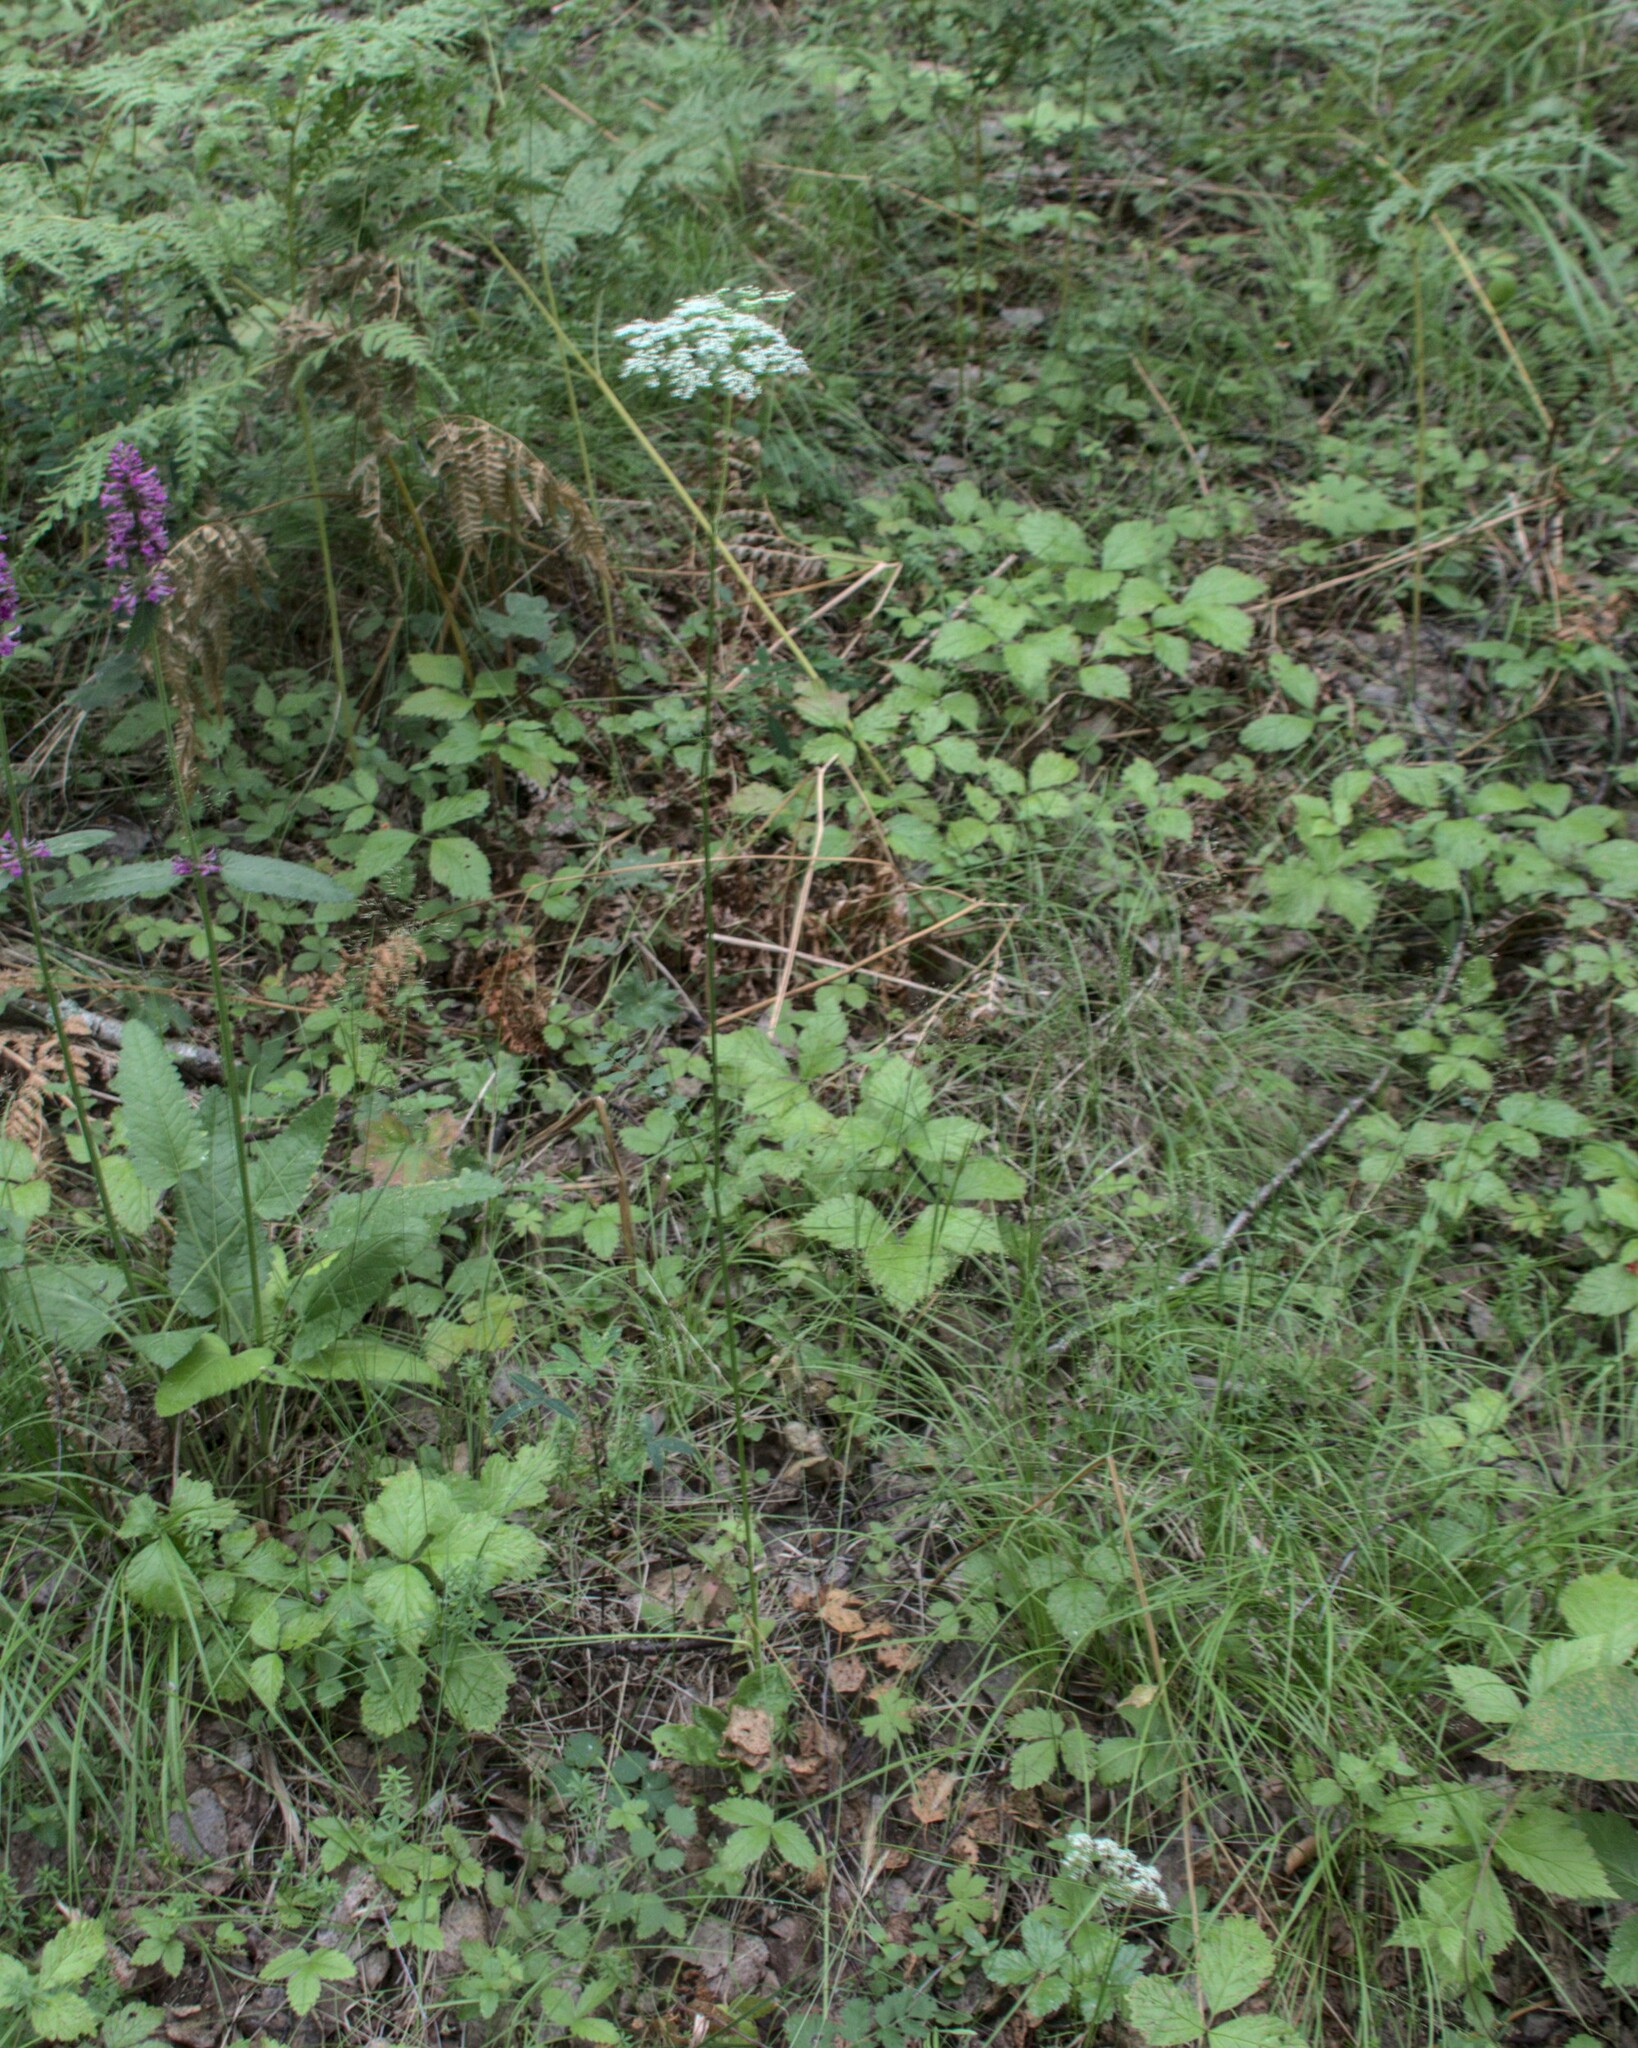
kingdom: Plantae
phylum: Tracheophyta
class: Magnoliopsida
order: Apiales
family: Apiaceae
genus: Pimpinella
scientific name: Pimpinella saxifraga
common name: Burnet-saxifrage
